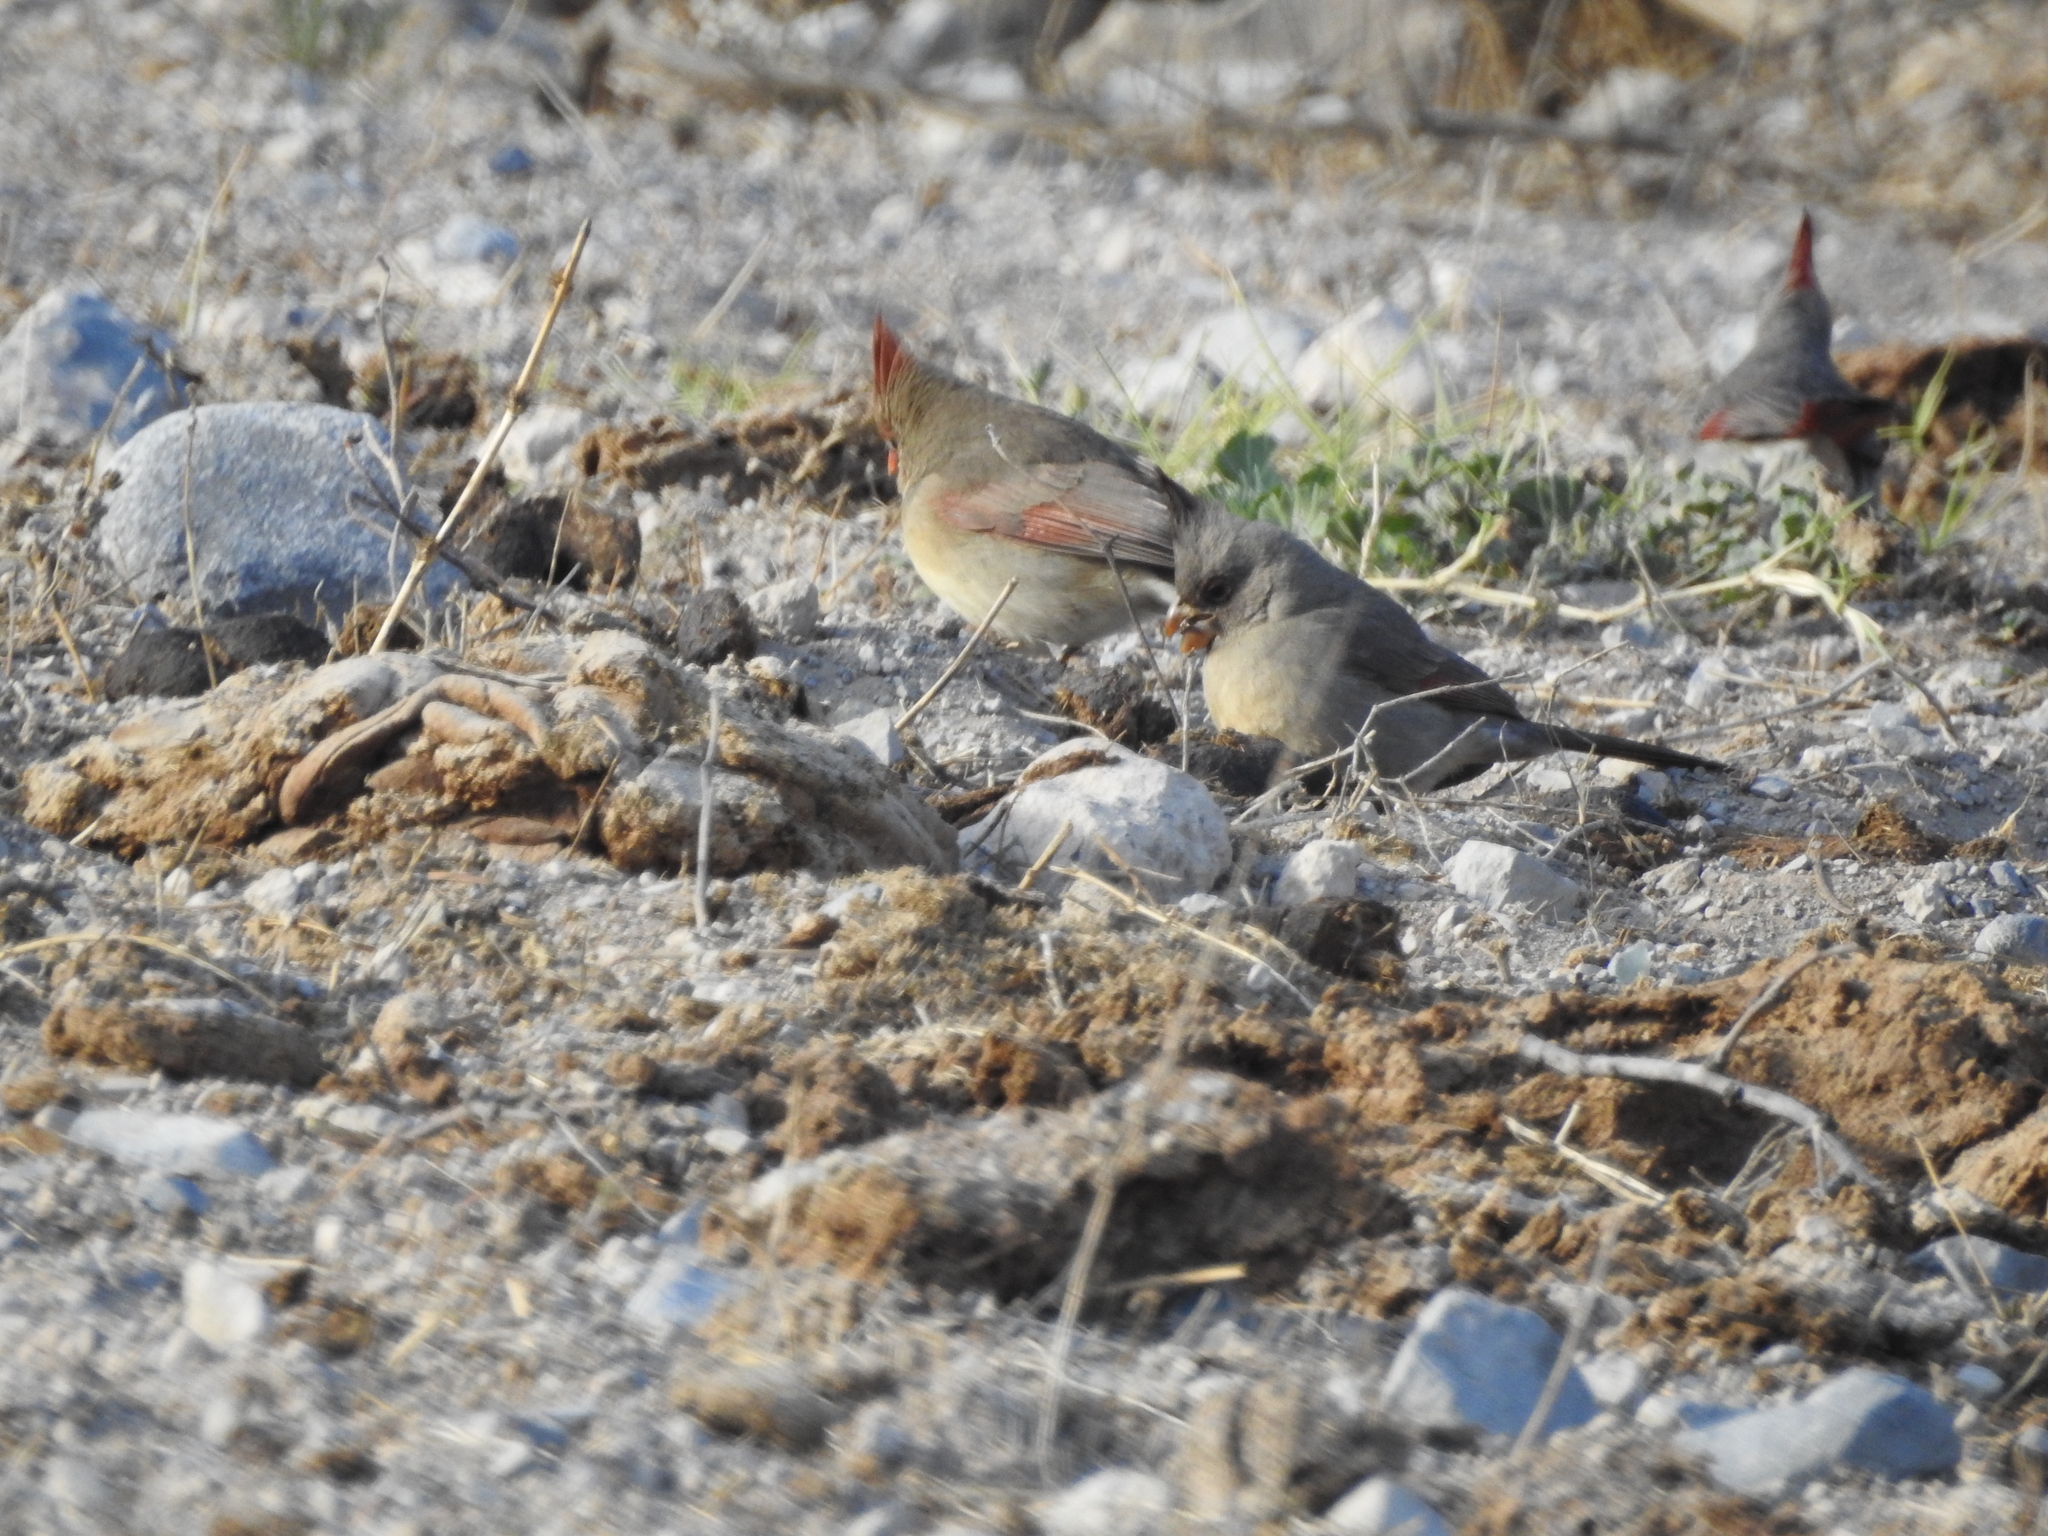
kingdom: Animalia
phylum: Chordata
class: Aves
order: Passeriformes
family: Cardinalidae
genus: Cardinalis
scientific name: Cardinalis cardinalis
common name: Northern cardinal
